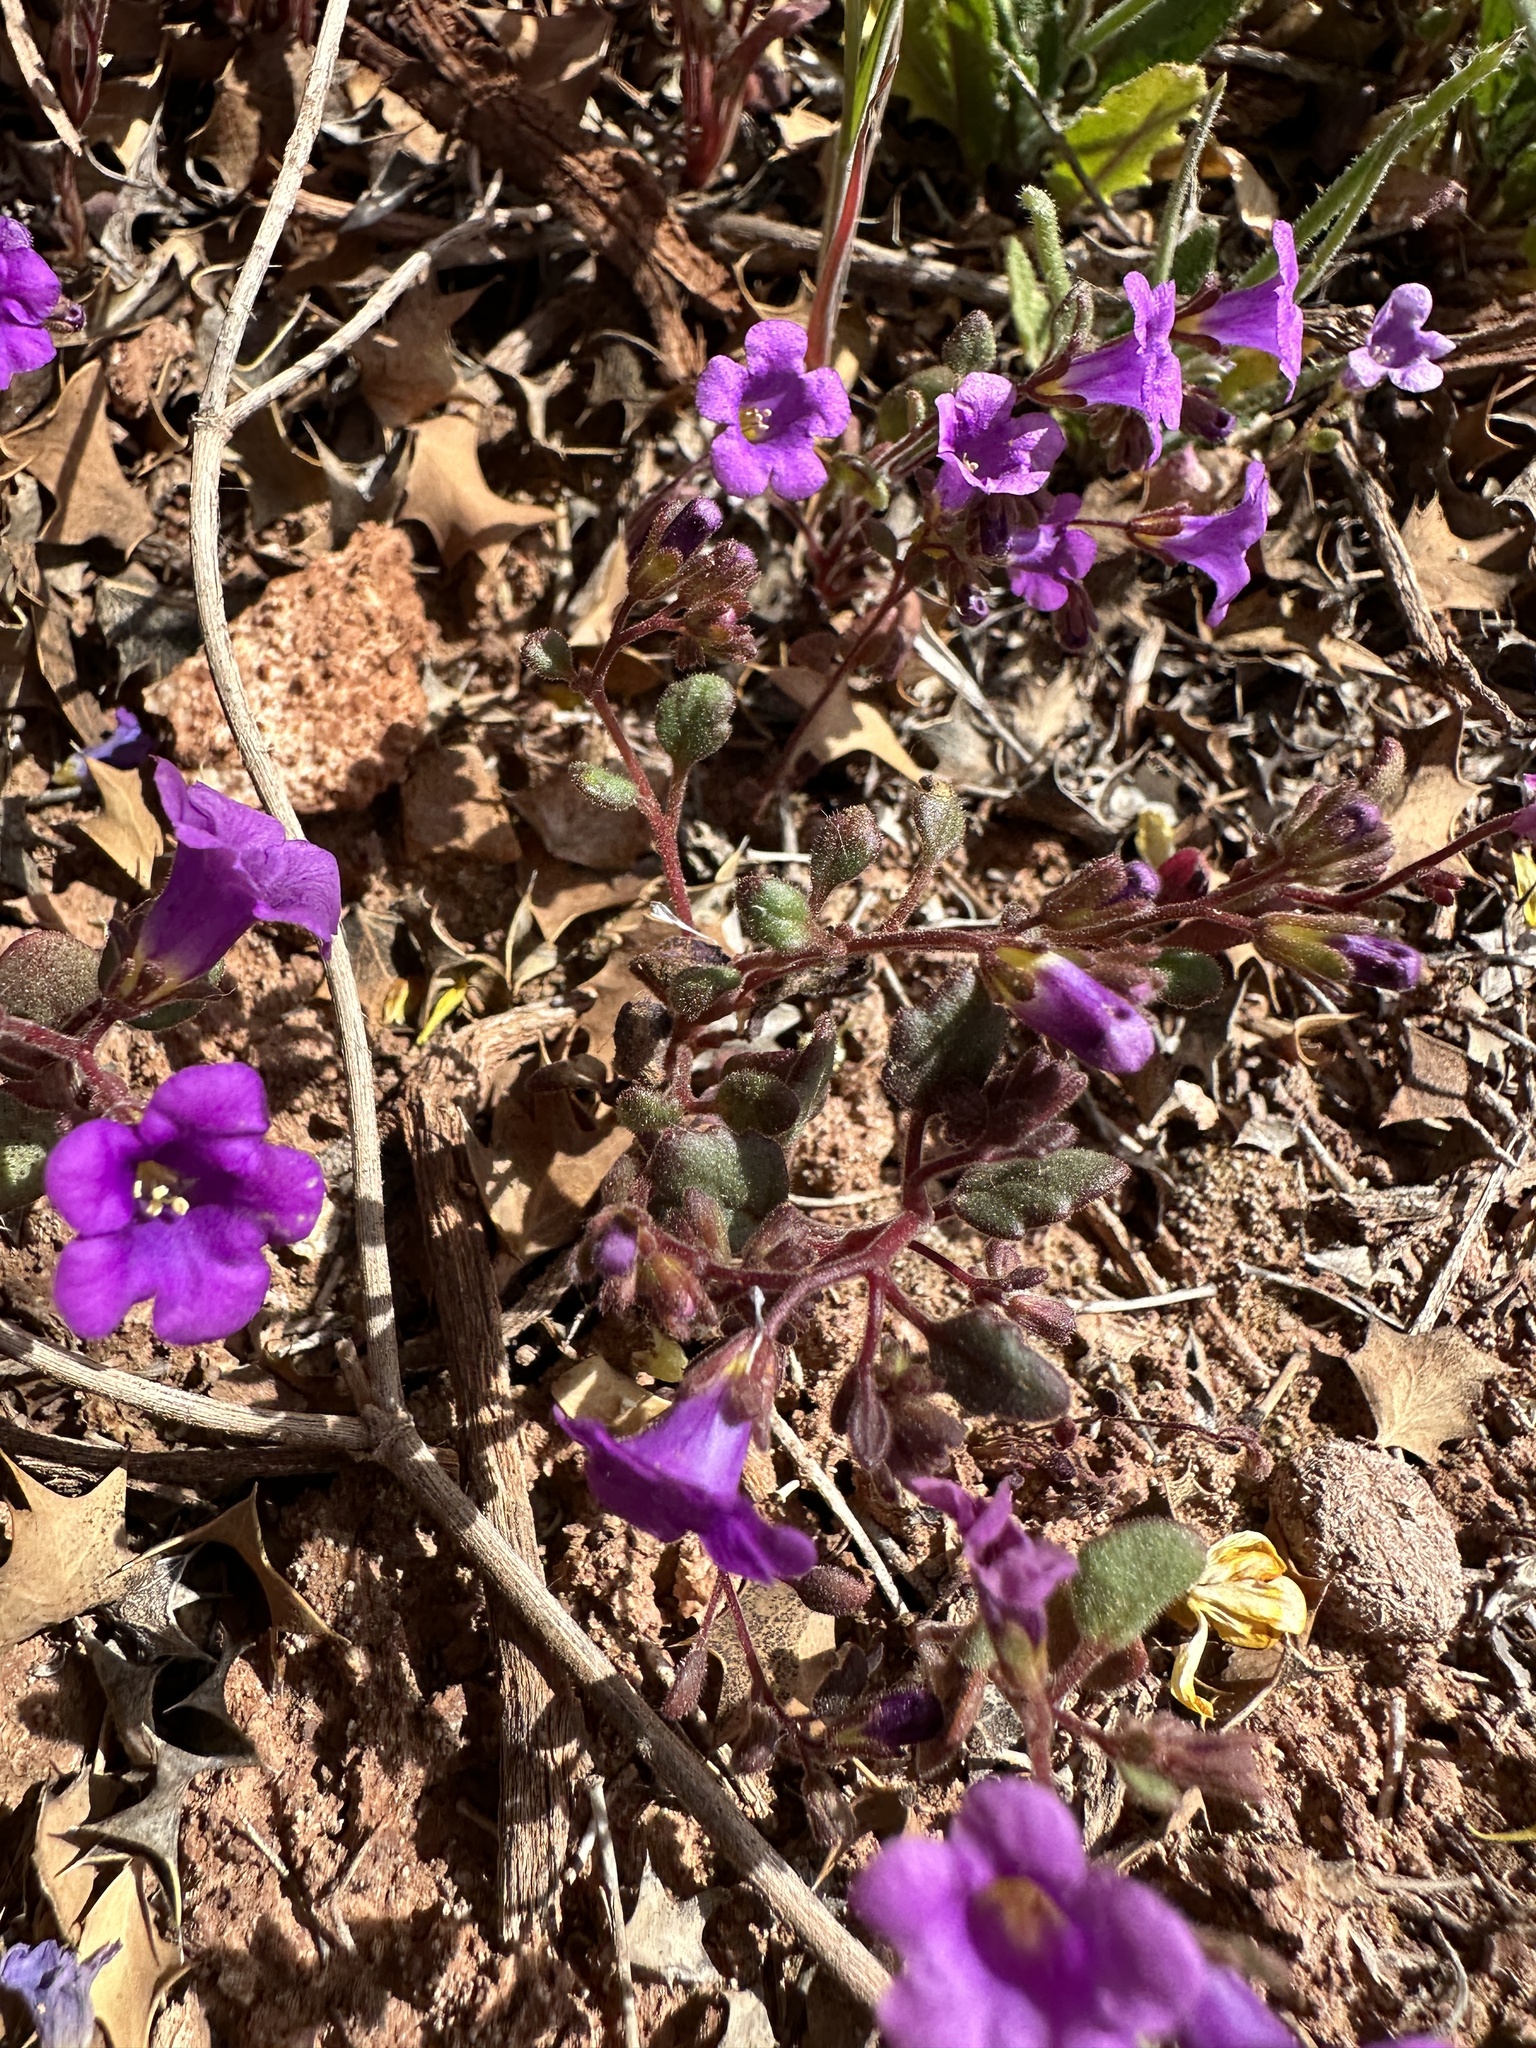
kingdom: Plantae
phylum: Tracheophyta
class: Magnoliopsida
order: Boraginales
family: Hydrophyllaceae
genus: Phacelia
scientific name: Phacelia pulchella
